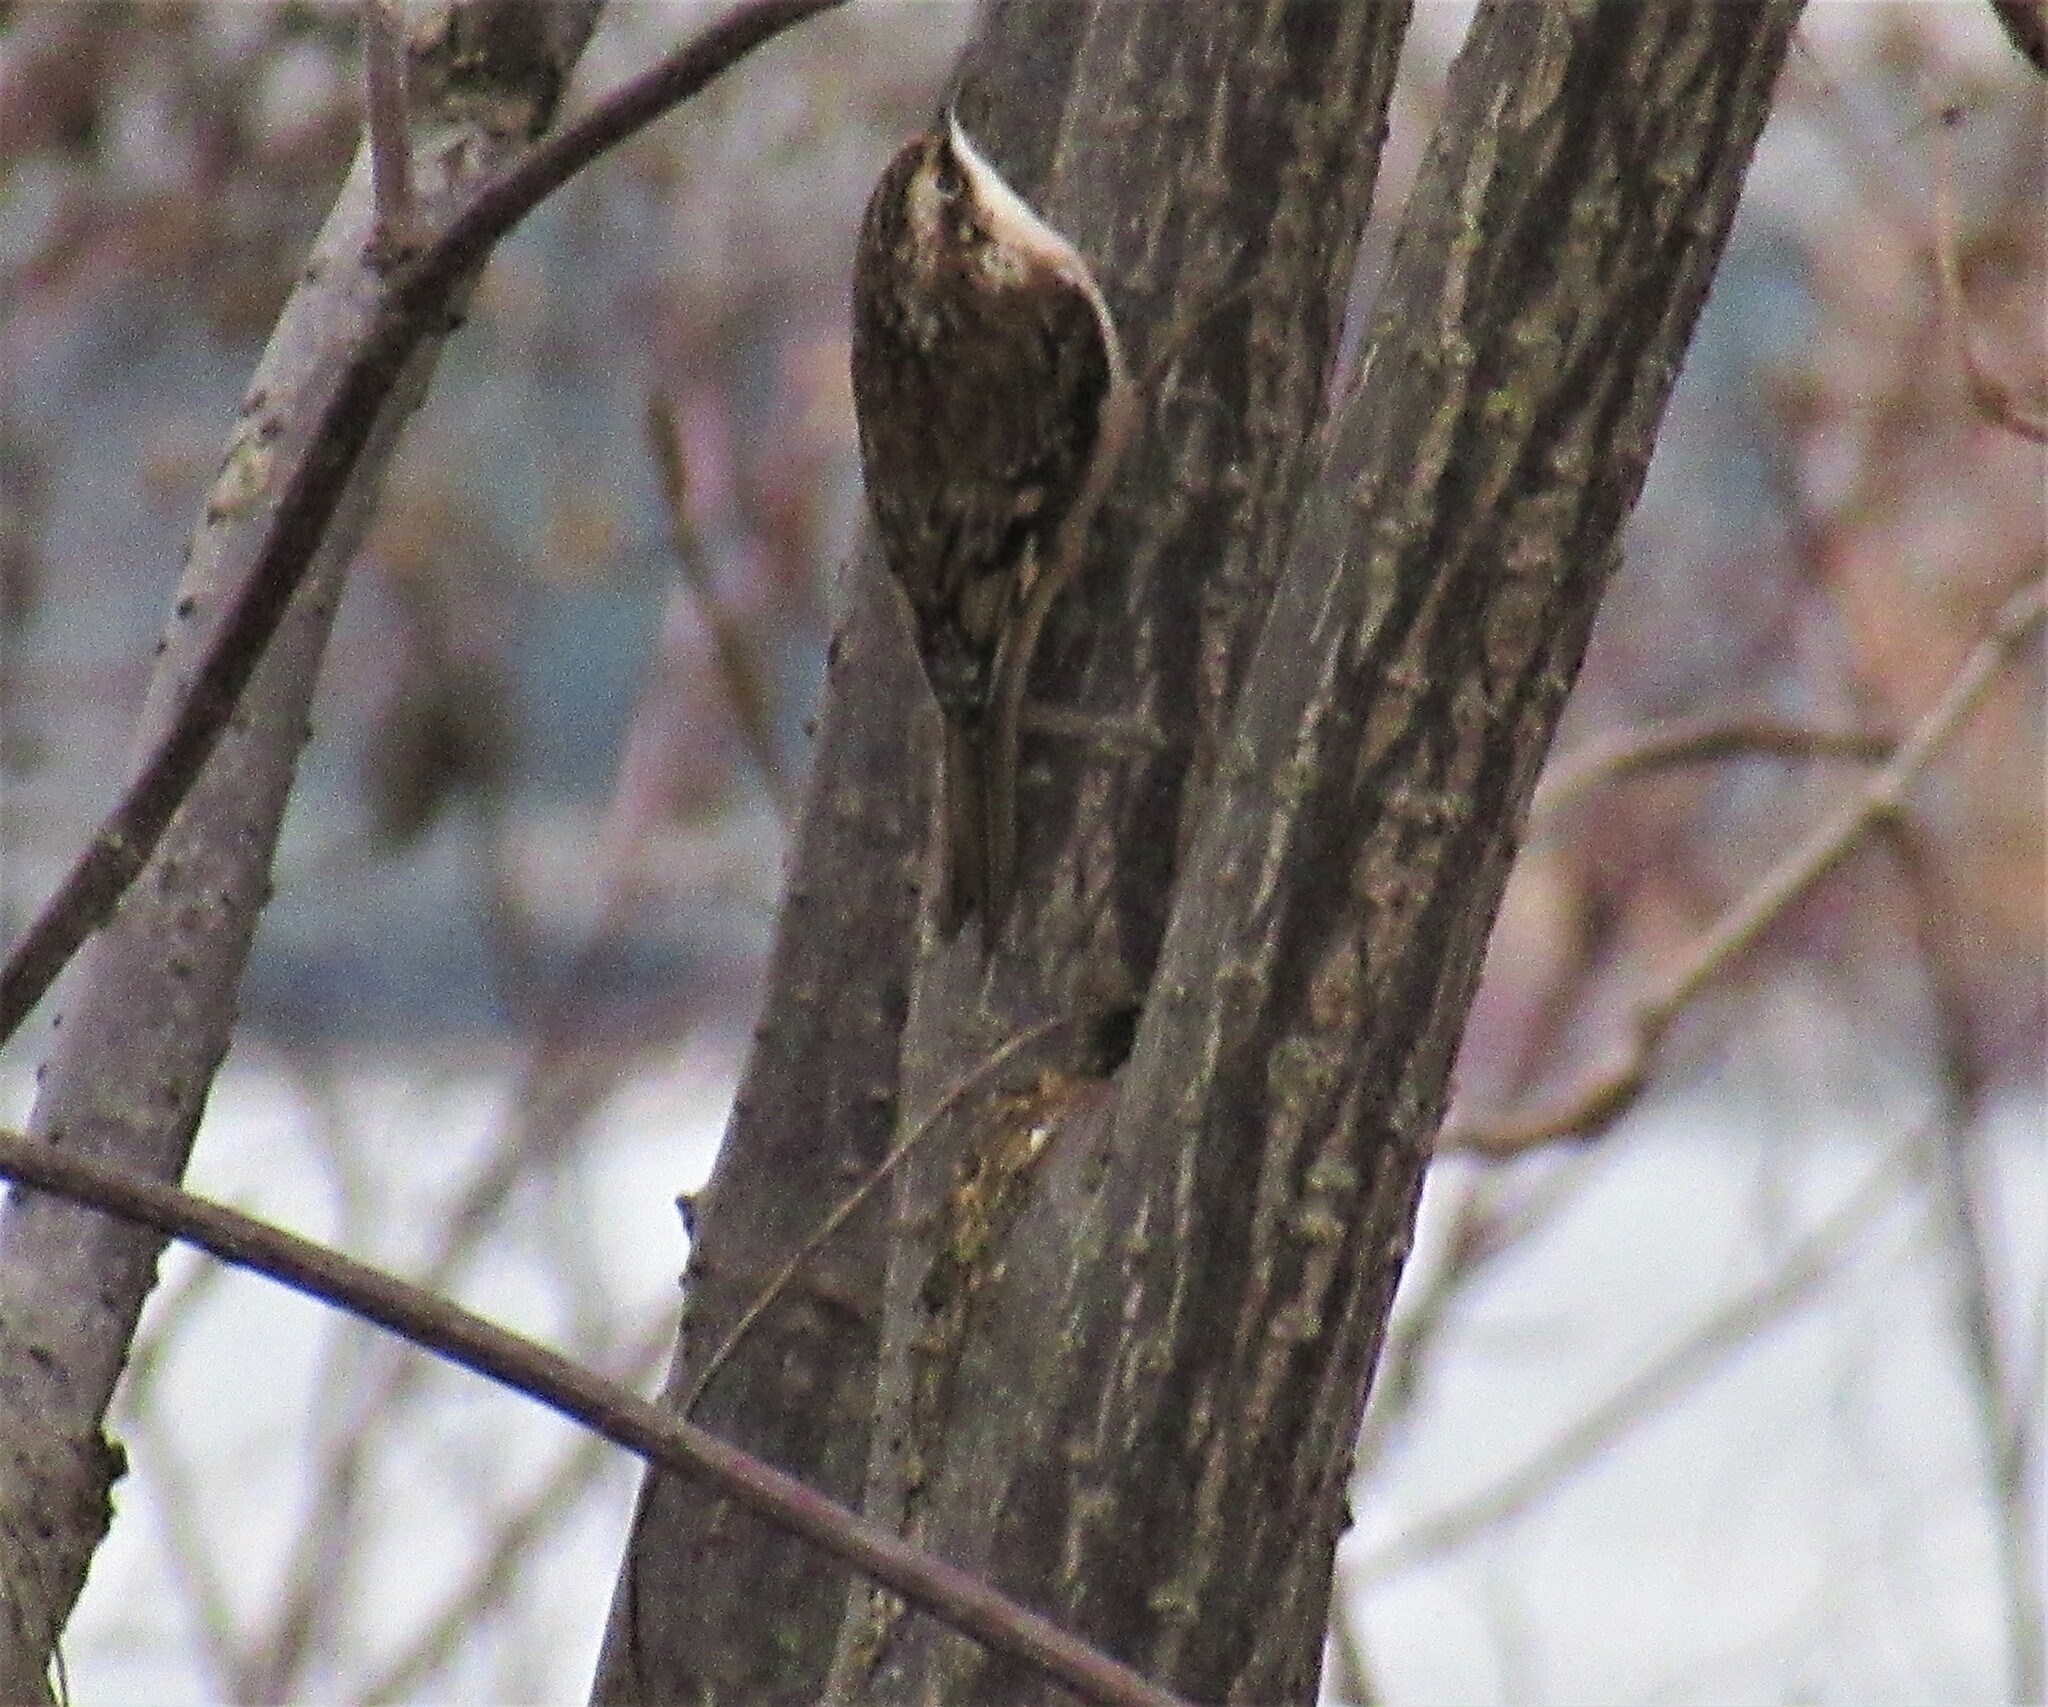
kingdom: Animalia
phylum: Chordata
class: Aves
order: Passeriformes
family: Certhiidae
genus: Certhia
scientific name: Certhia americana
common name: Brown creeper
